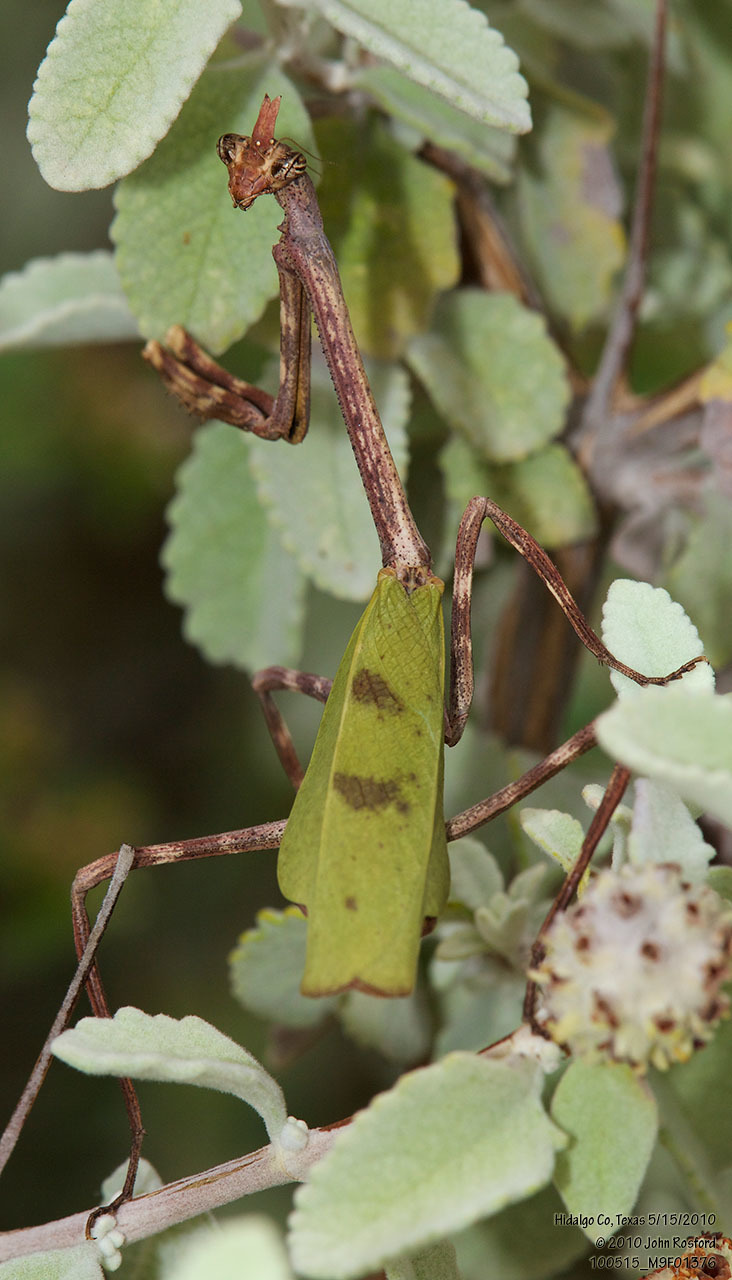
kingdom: Animalia
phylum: Arthropoda
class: Insecta
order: Mantodea
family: Mantidae
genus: Pseudovates
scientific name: Pseudovates chlorophaea
